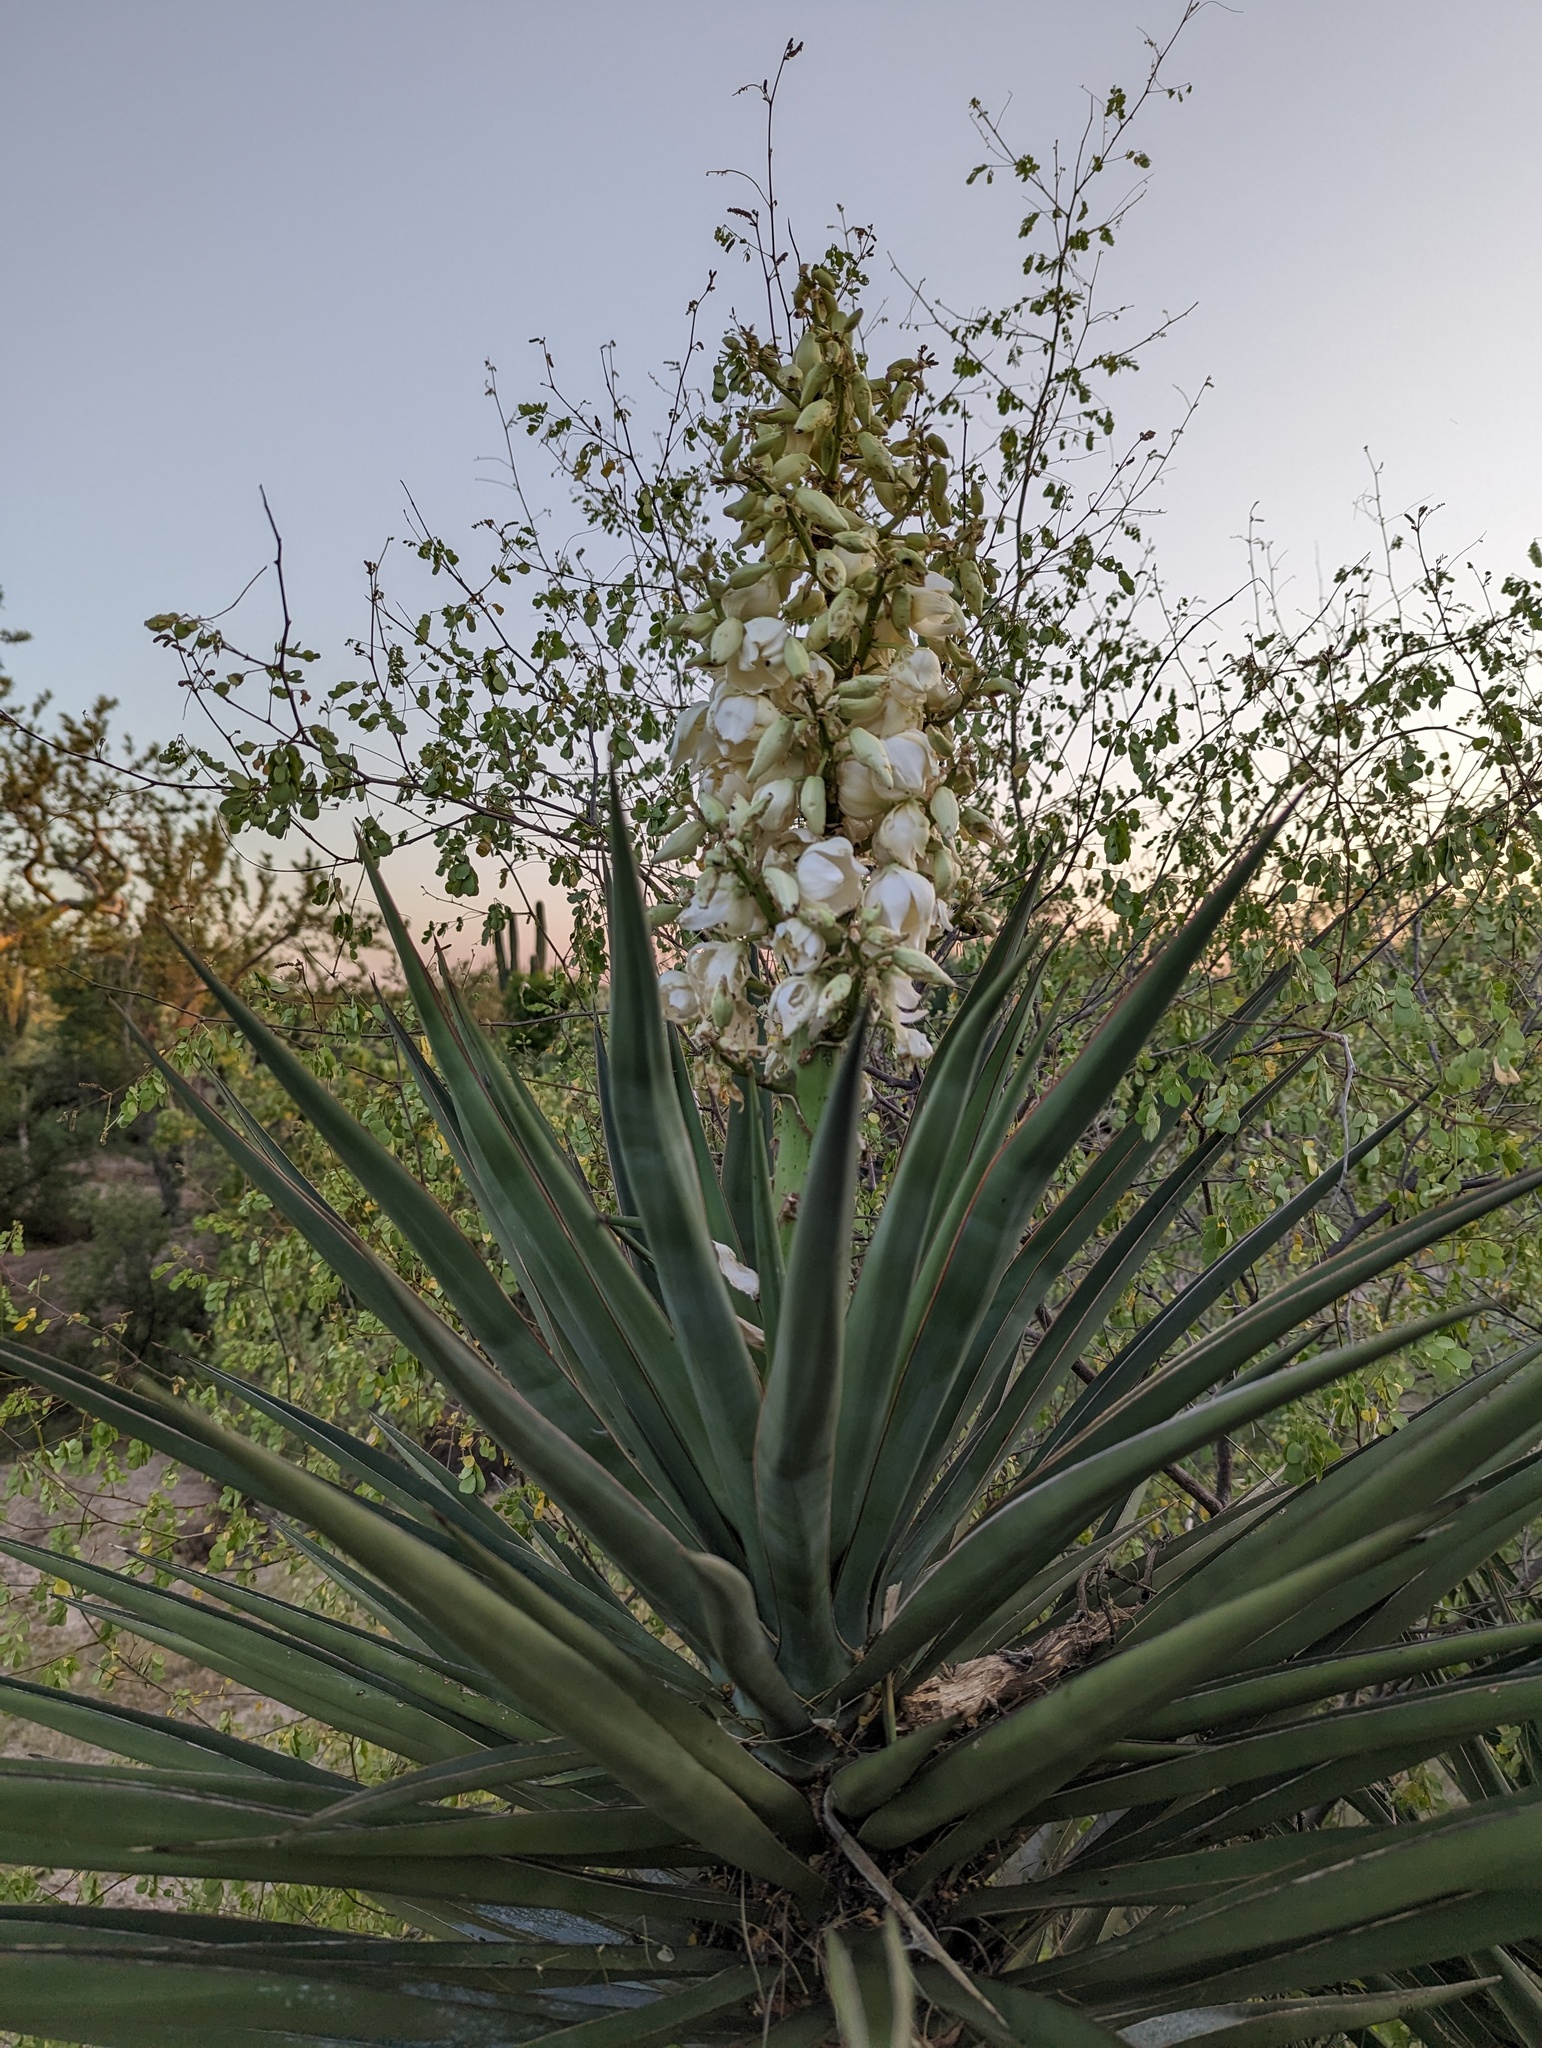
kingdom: Plantae
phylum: Tracheophyta
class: Liliopsida
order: Asparagales
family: Asparagaceae
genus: Yucca
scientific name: Yucca capensis
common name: Cape region yucca
